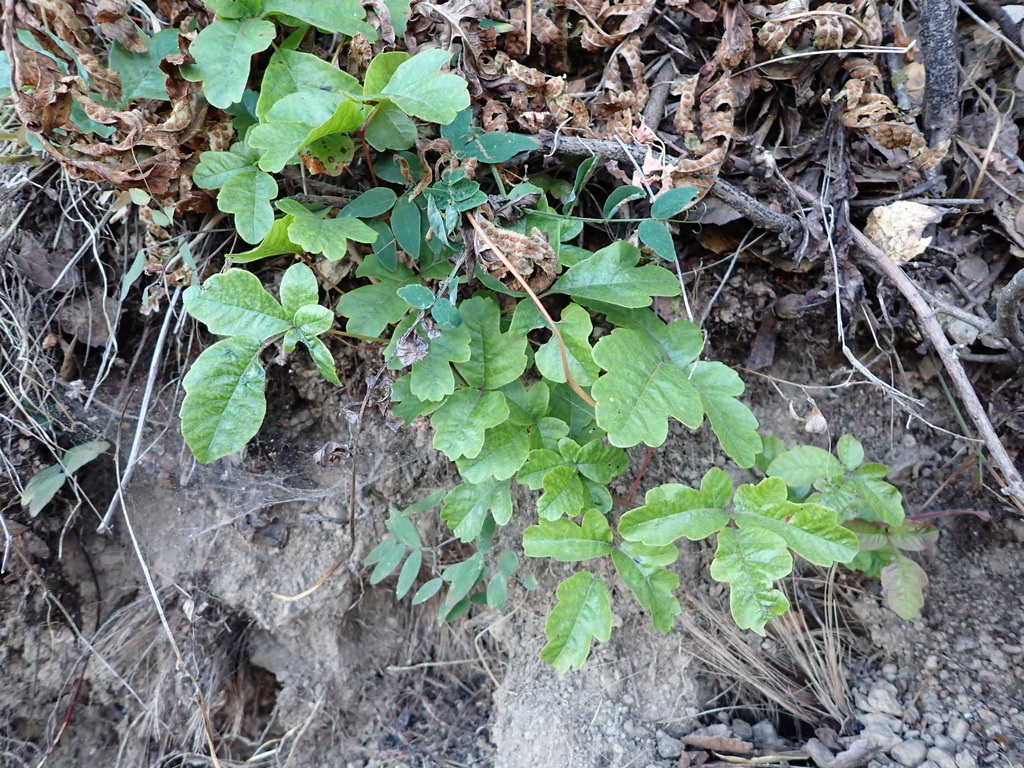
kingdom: Plantae
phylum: Tracheophyta
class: Magnoliopsida
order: Sapindales
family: Anacardiaceae
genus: Toxicodendron
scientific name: Toxicodendron diversilobum
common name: Pacific poison-oak
